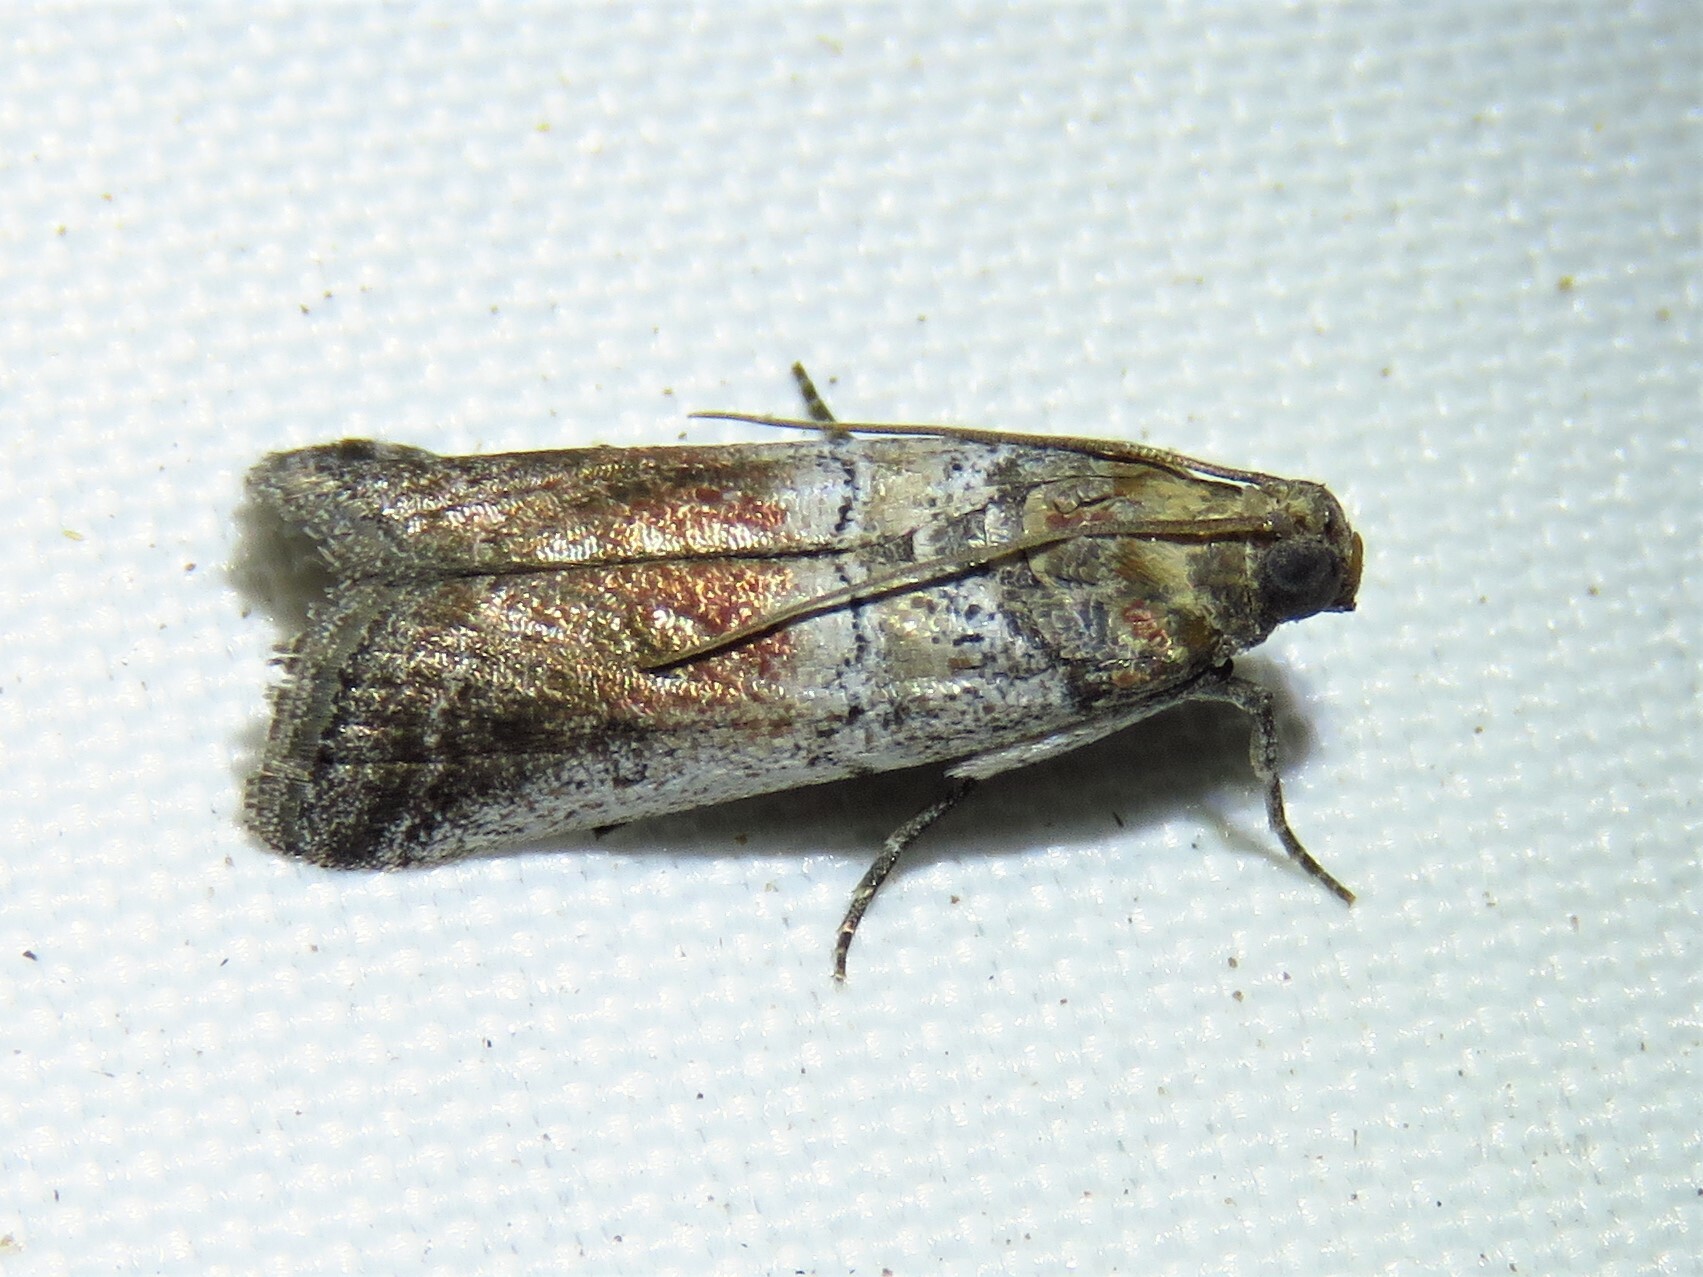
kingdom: Animalia
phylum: Arthropoda
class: Insecta
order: Lepidoptera
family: Pyralidae
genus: Chararica
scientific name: Chararica hystriculella
